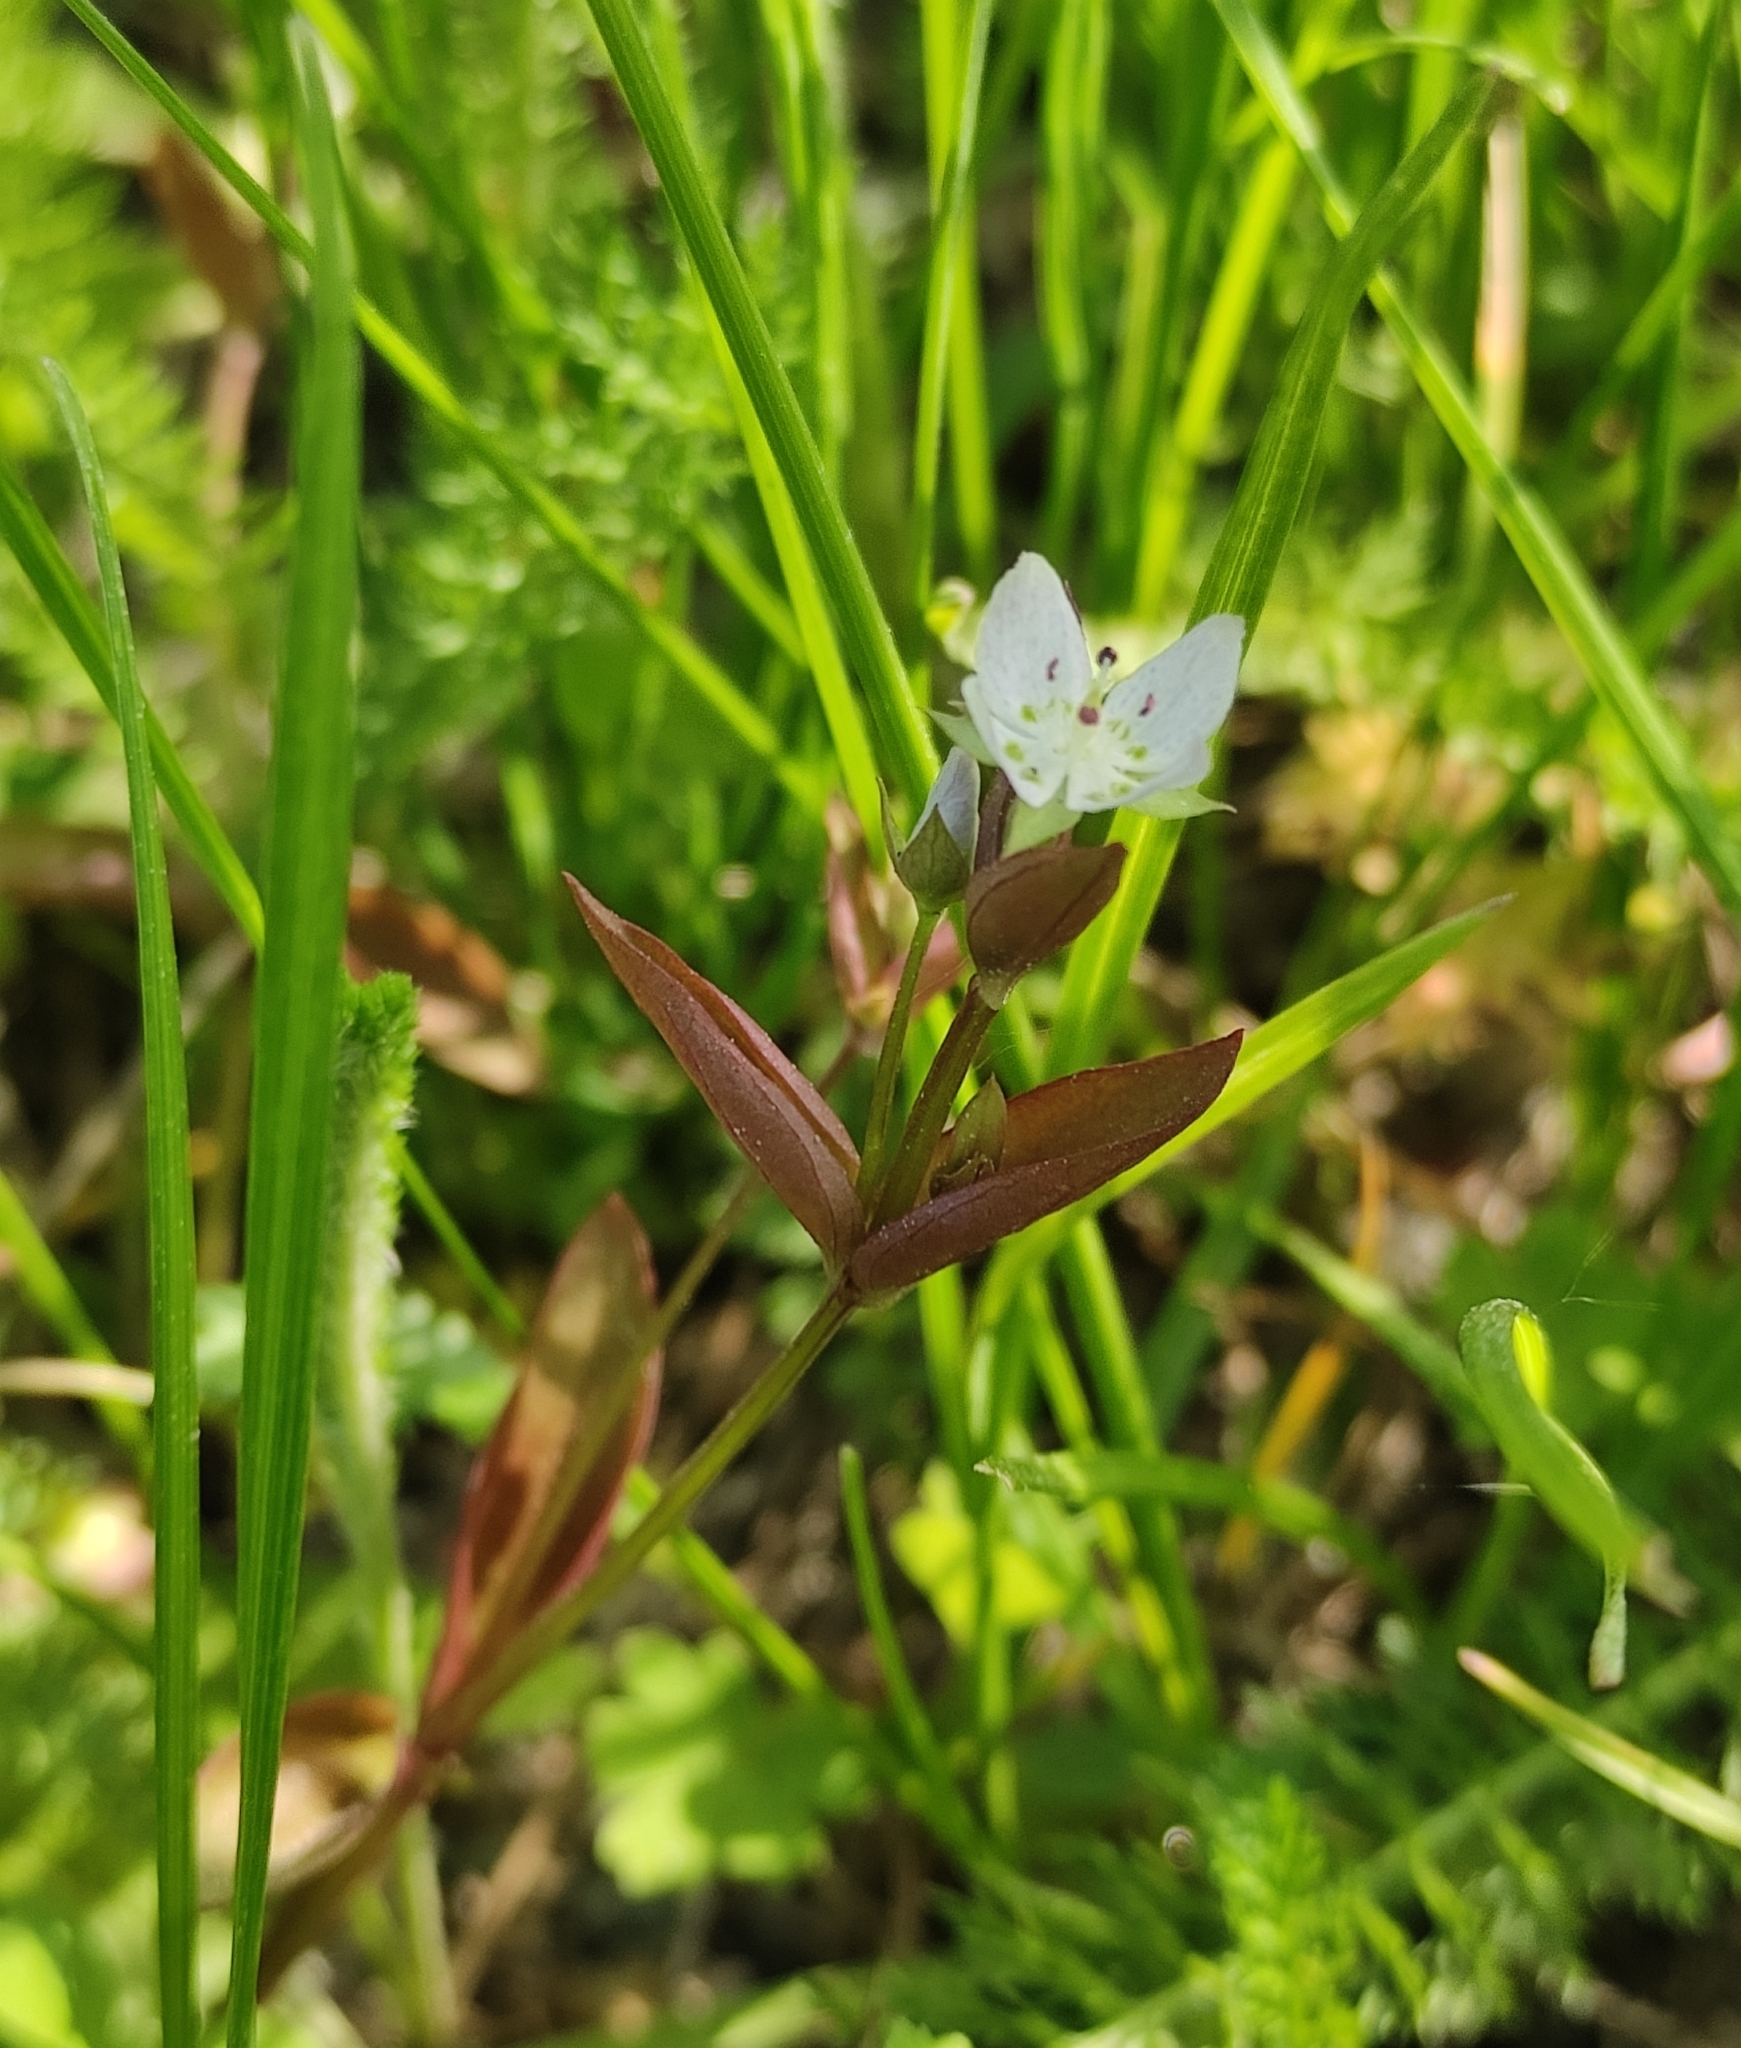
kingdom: Plantae
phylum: Tracheophyta
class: Magnoliopsida
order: Gentianales
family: Gentianaceae
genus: Swertia
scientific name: Swertia dichotoma
